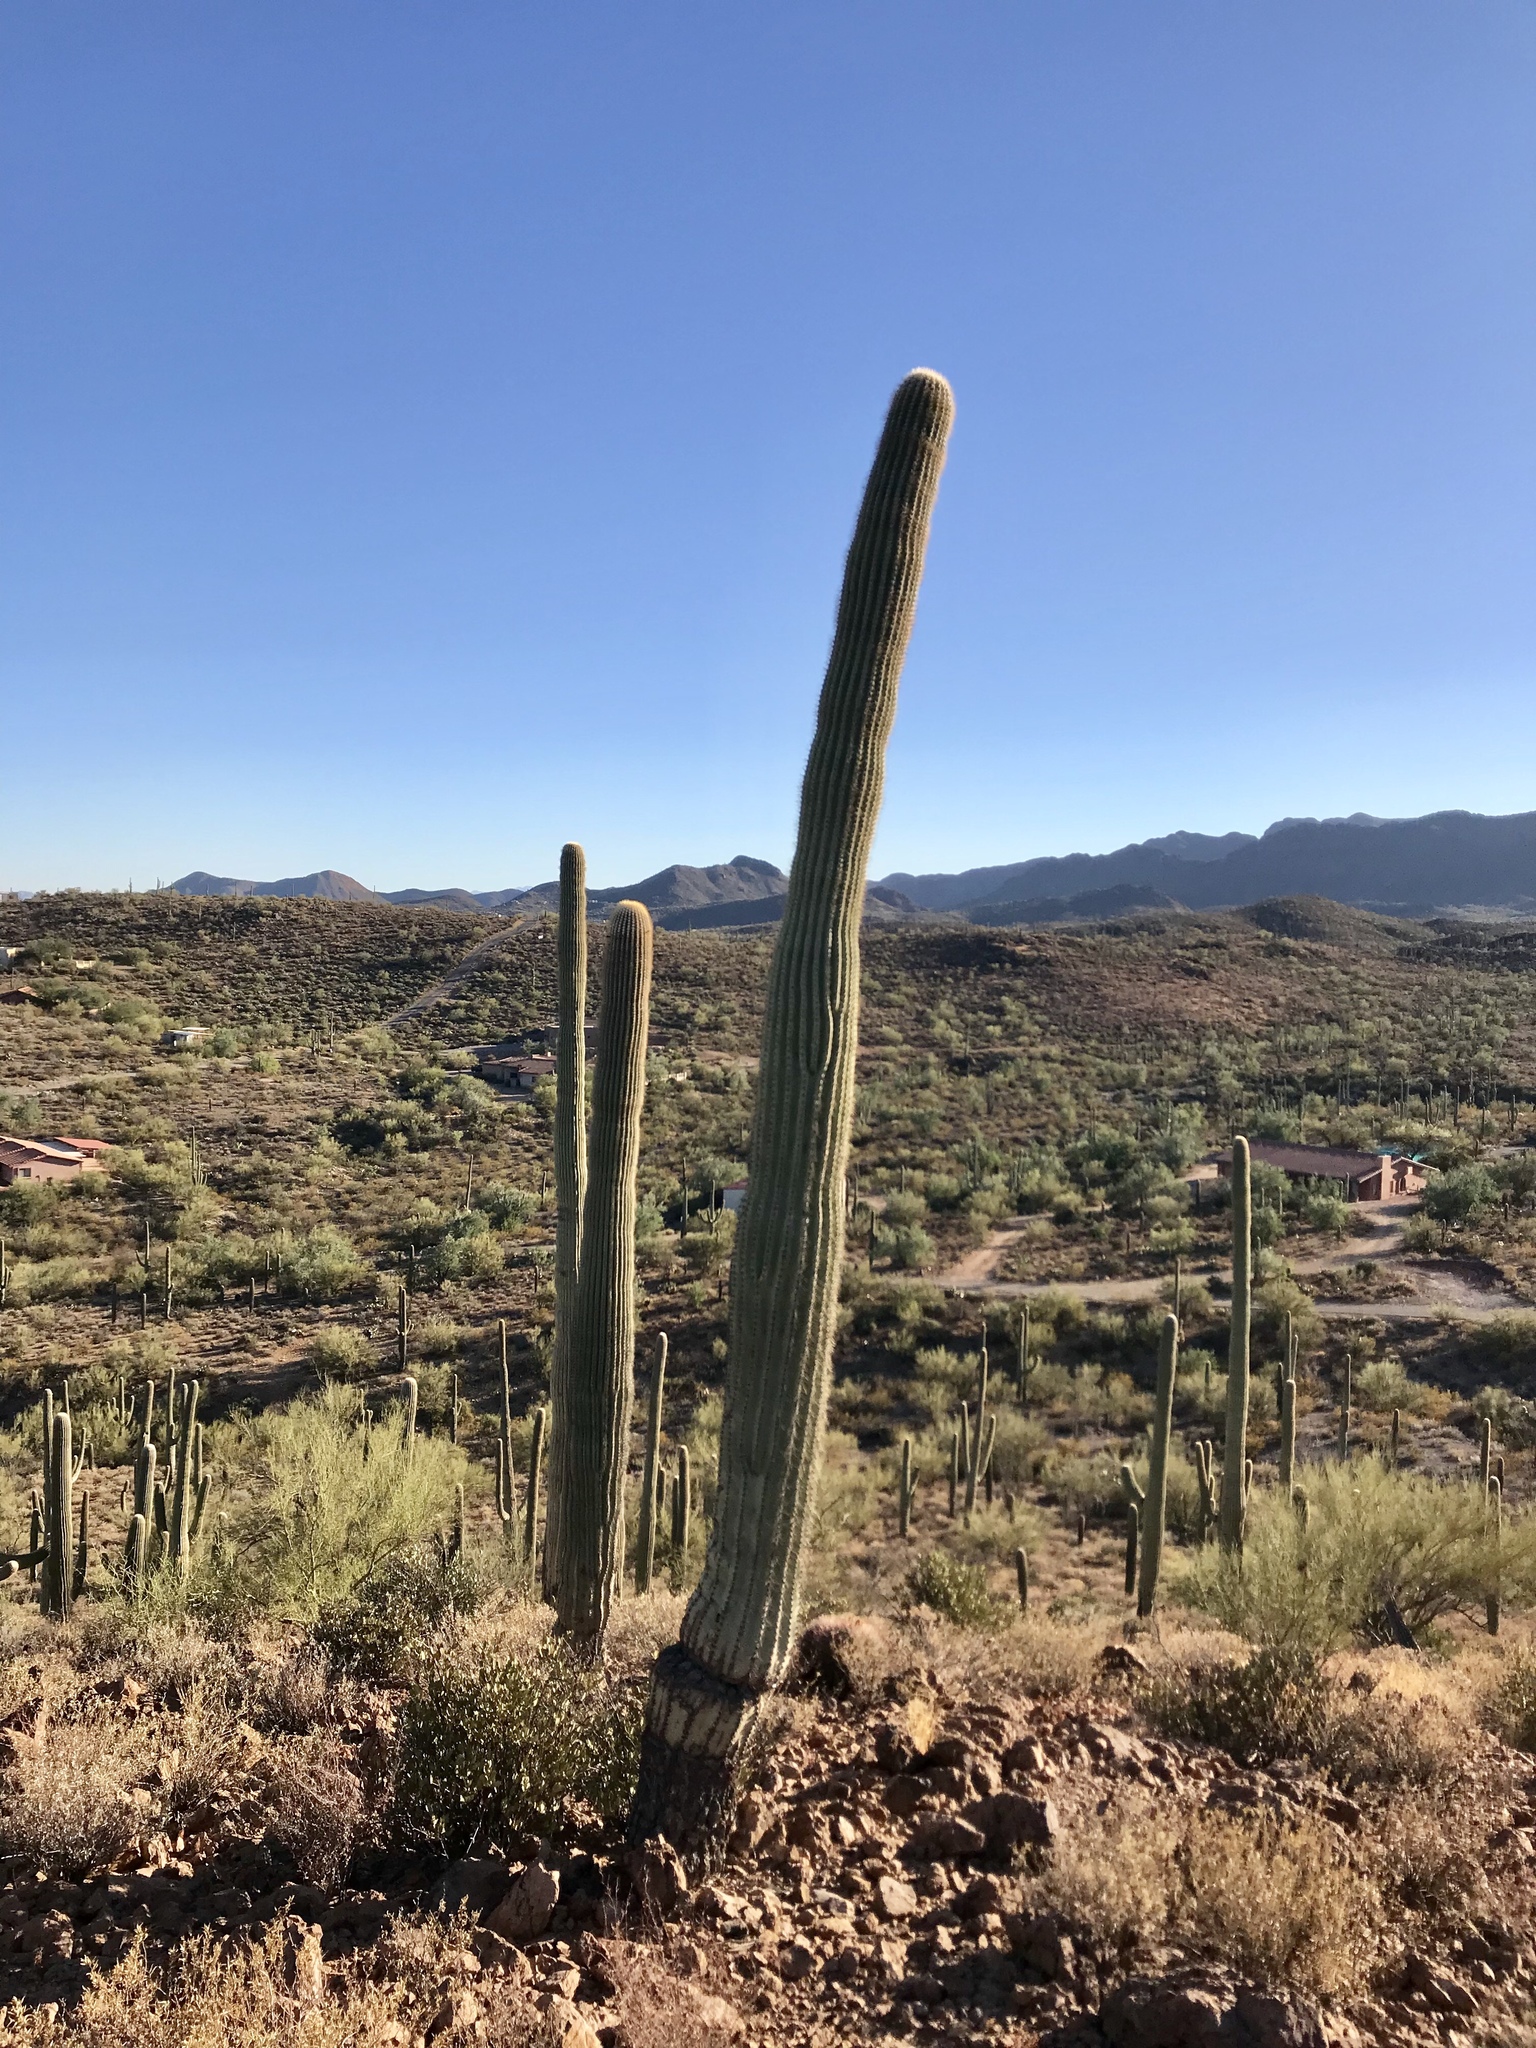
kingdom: Plantae
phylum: Tracheophyta
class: Magnoliopsida
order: Caryophyllales
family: Cactaceae
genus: Carnegiea
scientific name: Carnegiea gigantea
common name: Saguaro
